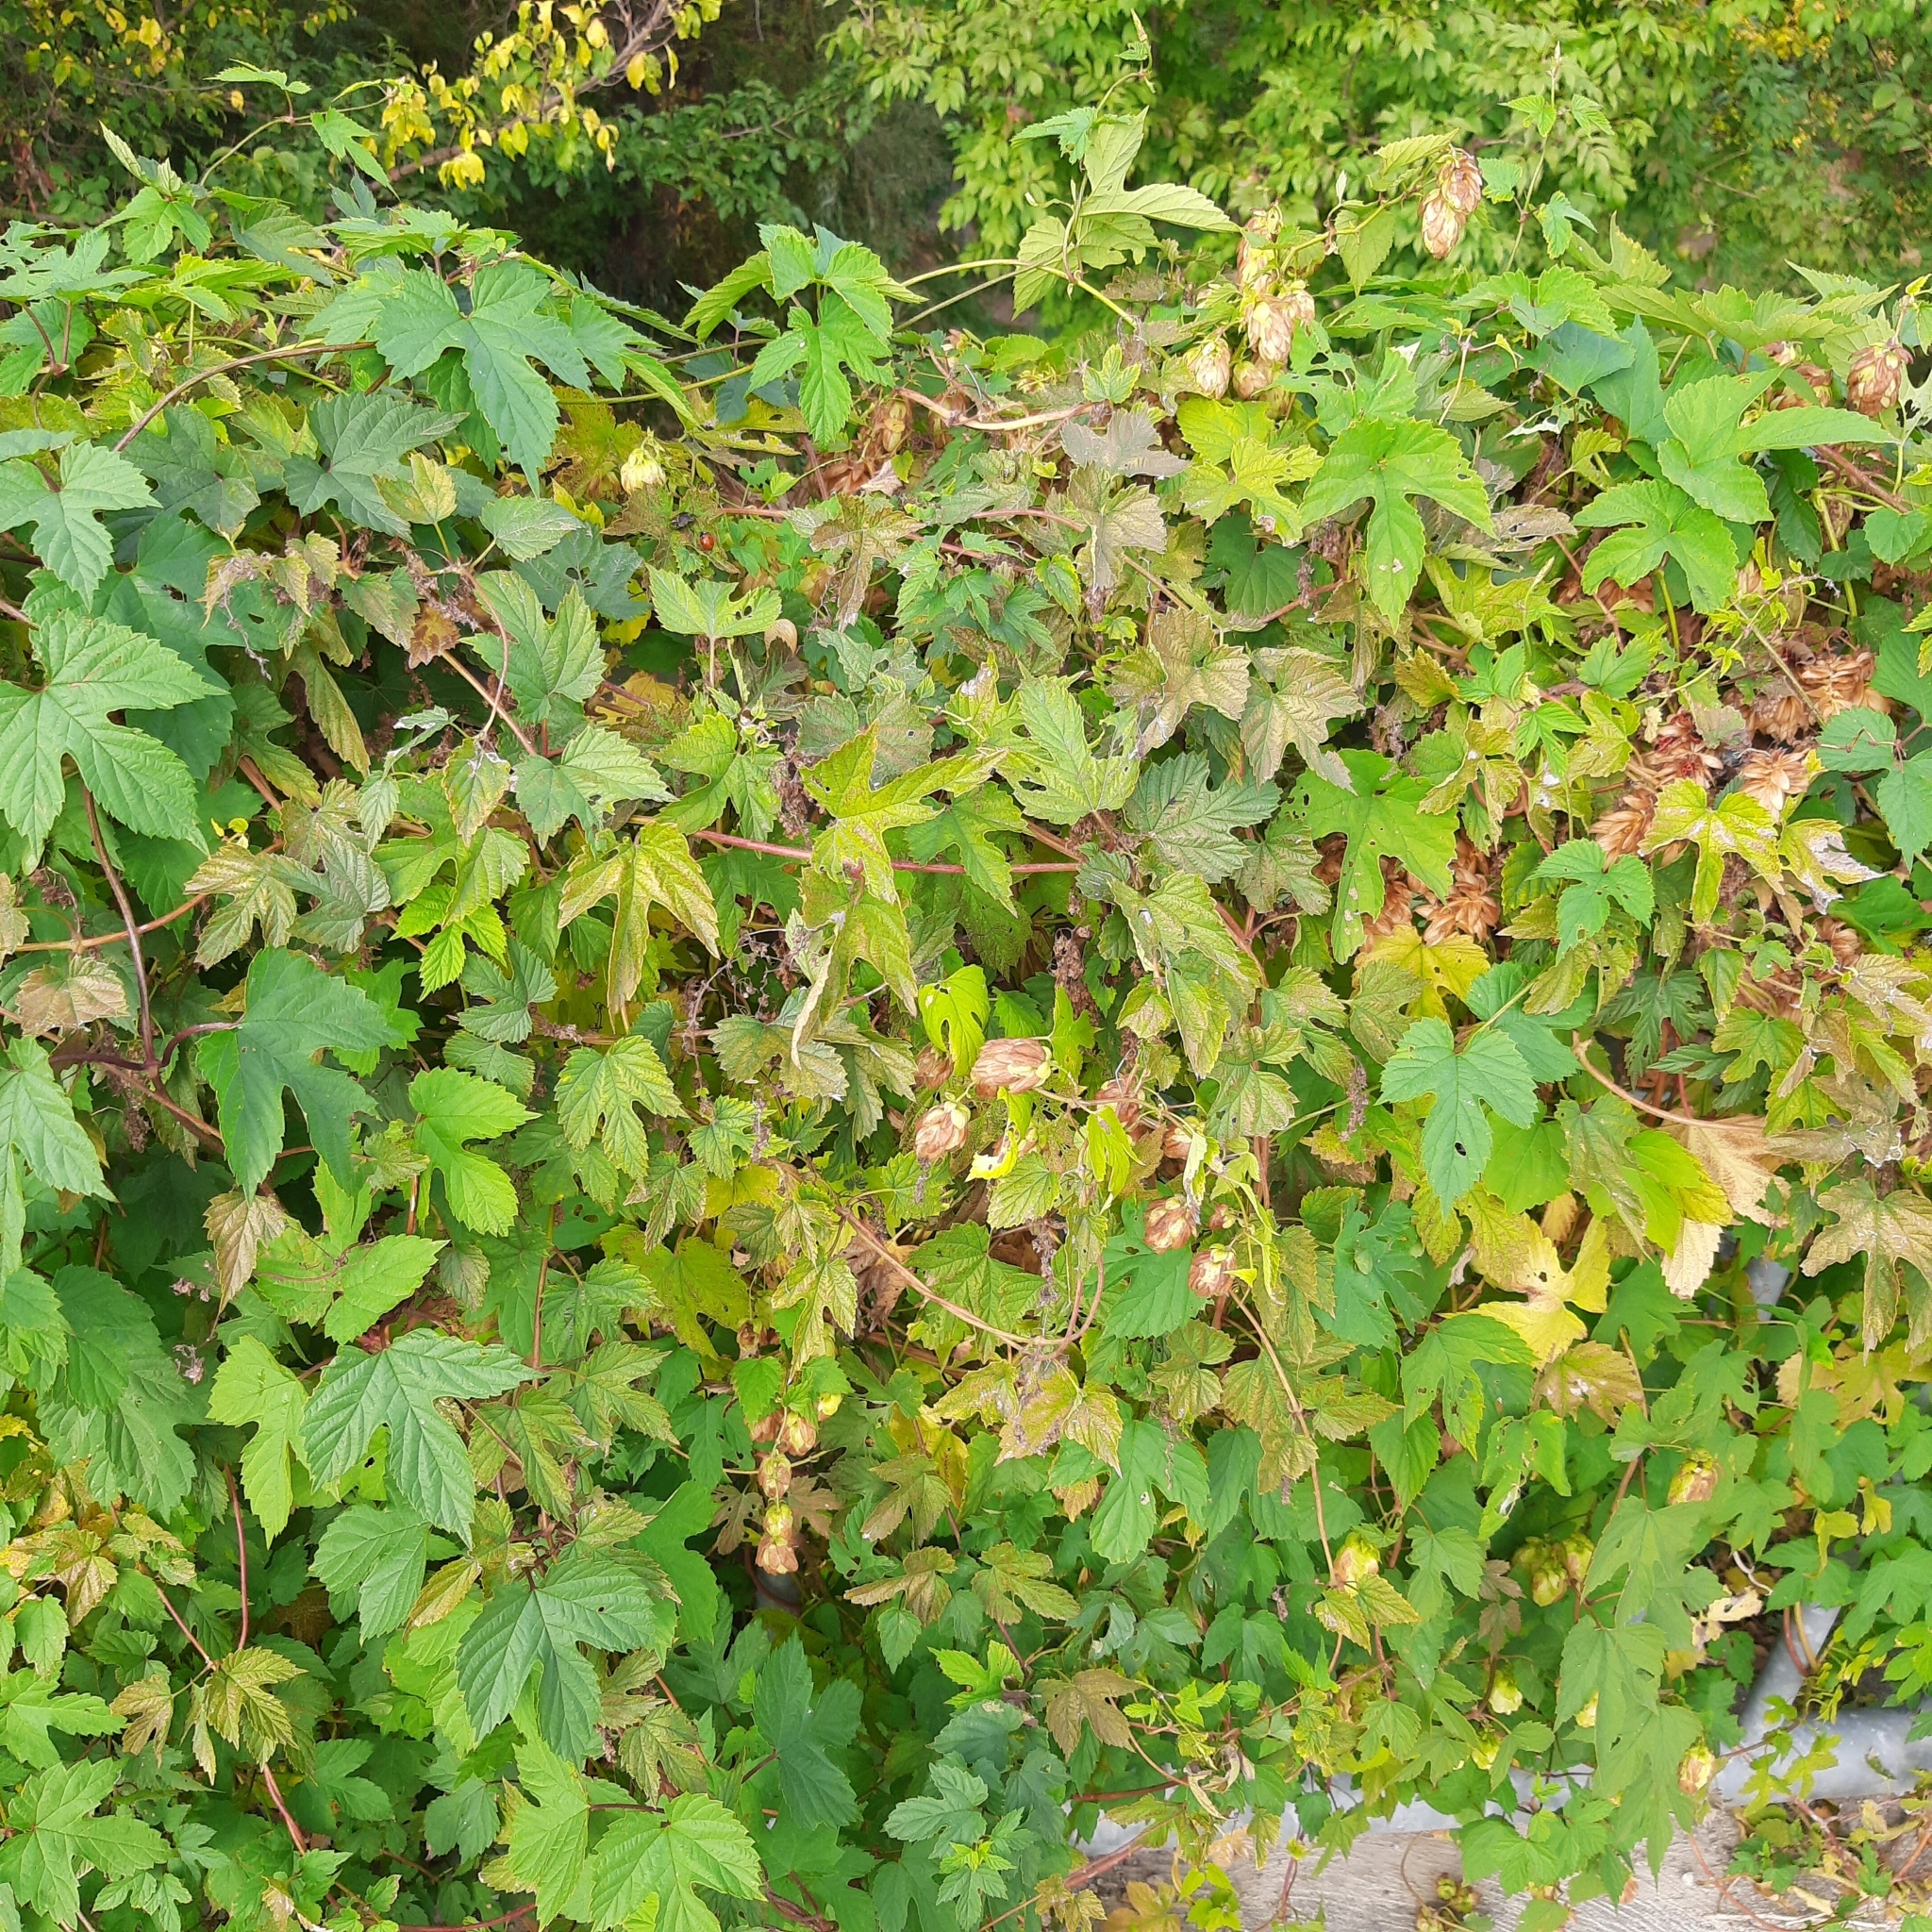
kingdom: Plantae
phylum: Tracheophyta
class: Magnoliopsida
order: Rosales
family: Cannabaceae
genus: Humulus
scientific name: Humulus lupulus
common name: Hop
